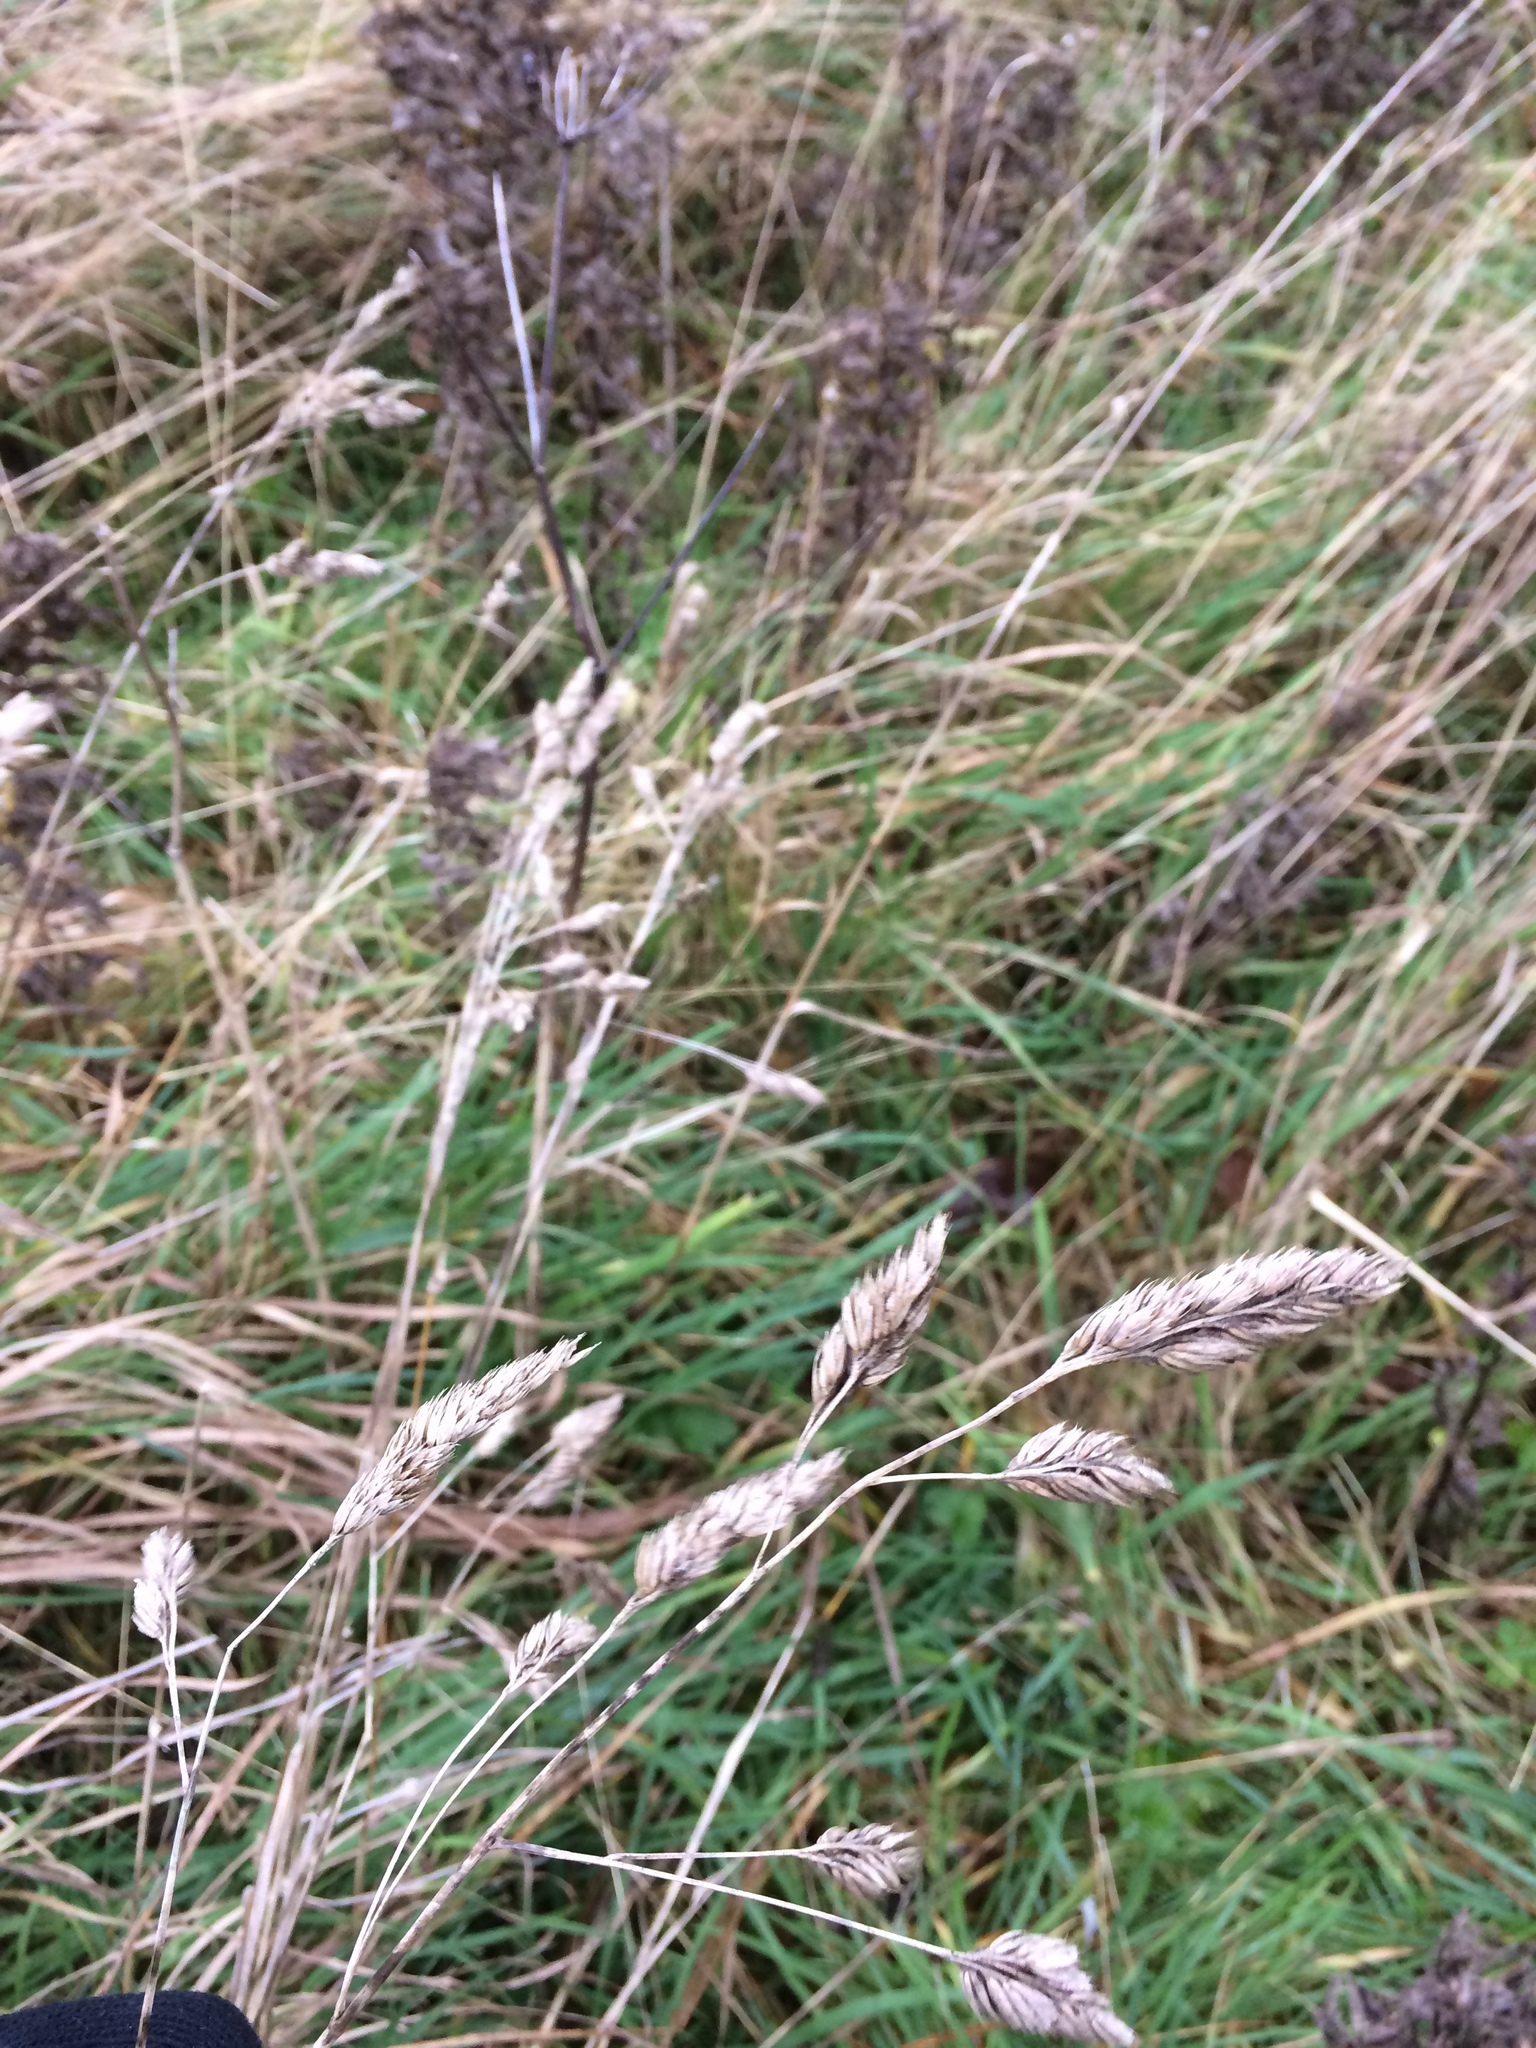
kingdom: Plantae
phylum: Tracheophyta
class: Liliopsida
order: Poales
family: Poaceae
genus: Dactylis
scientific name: Dactylis glomerata
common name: Orchardgrass
